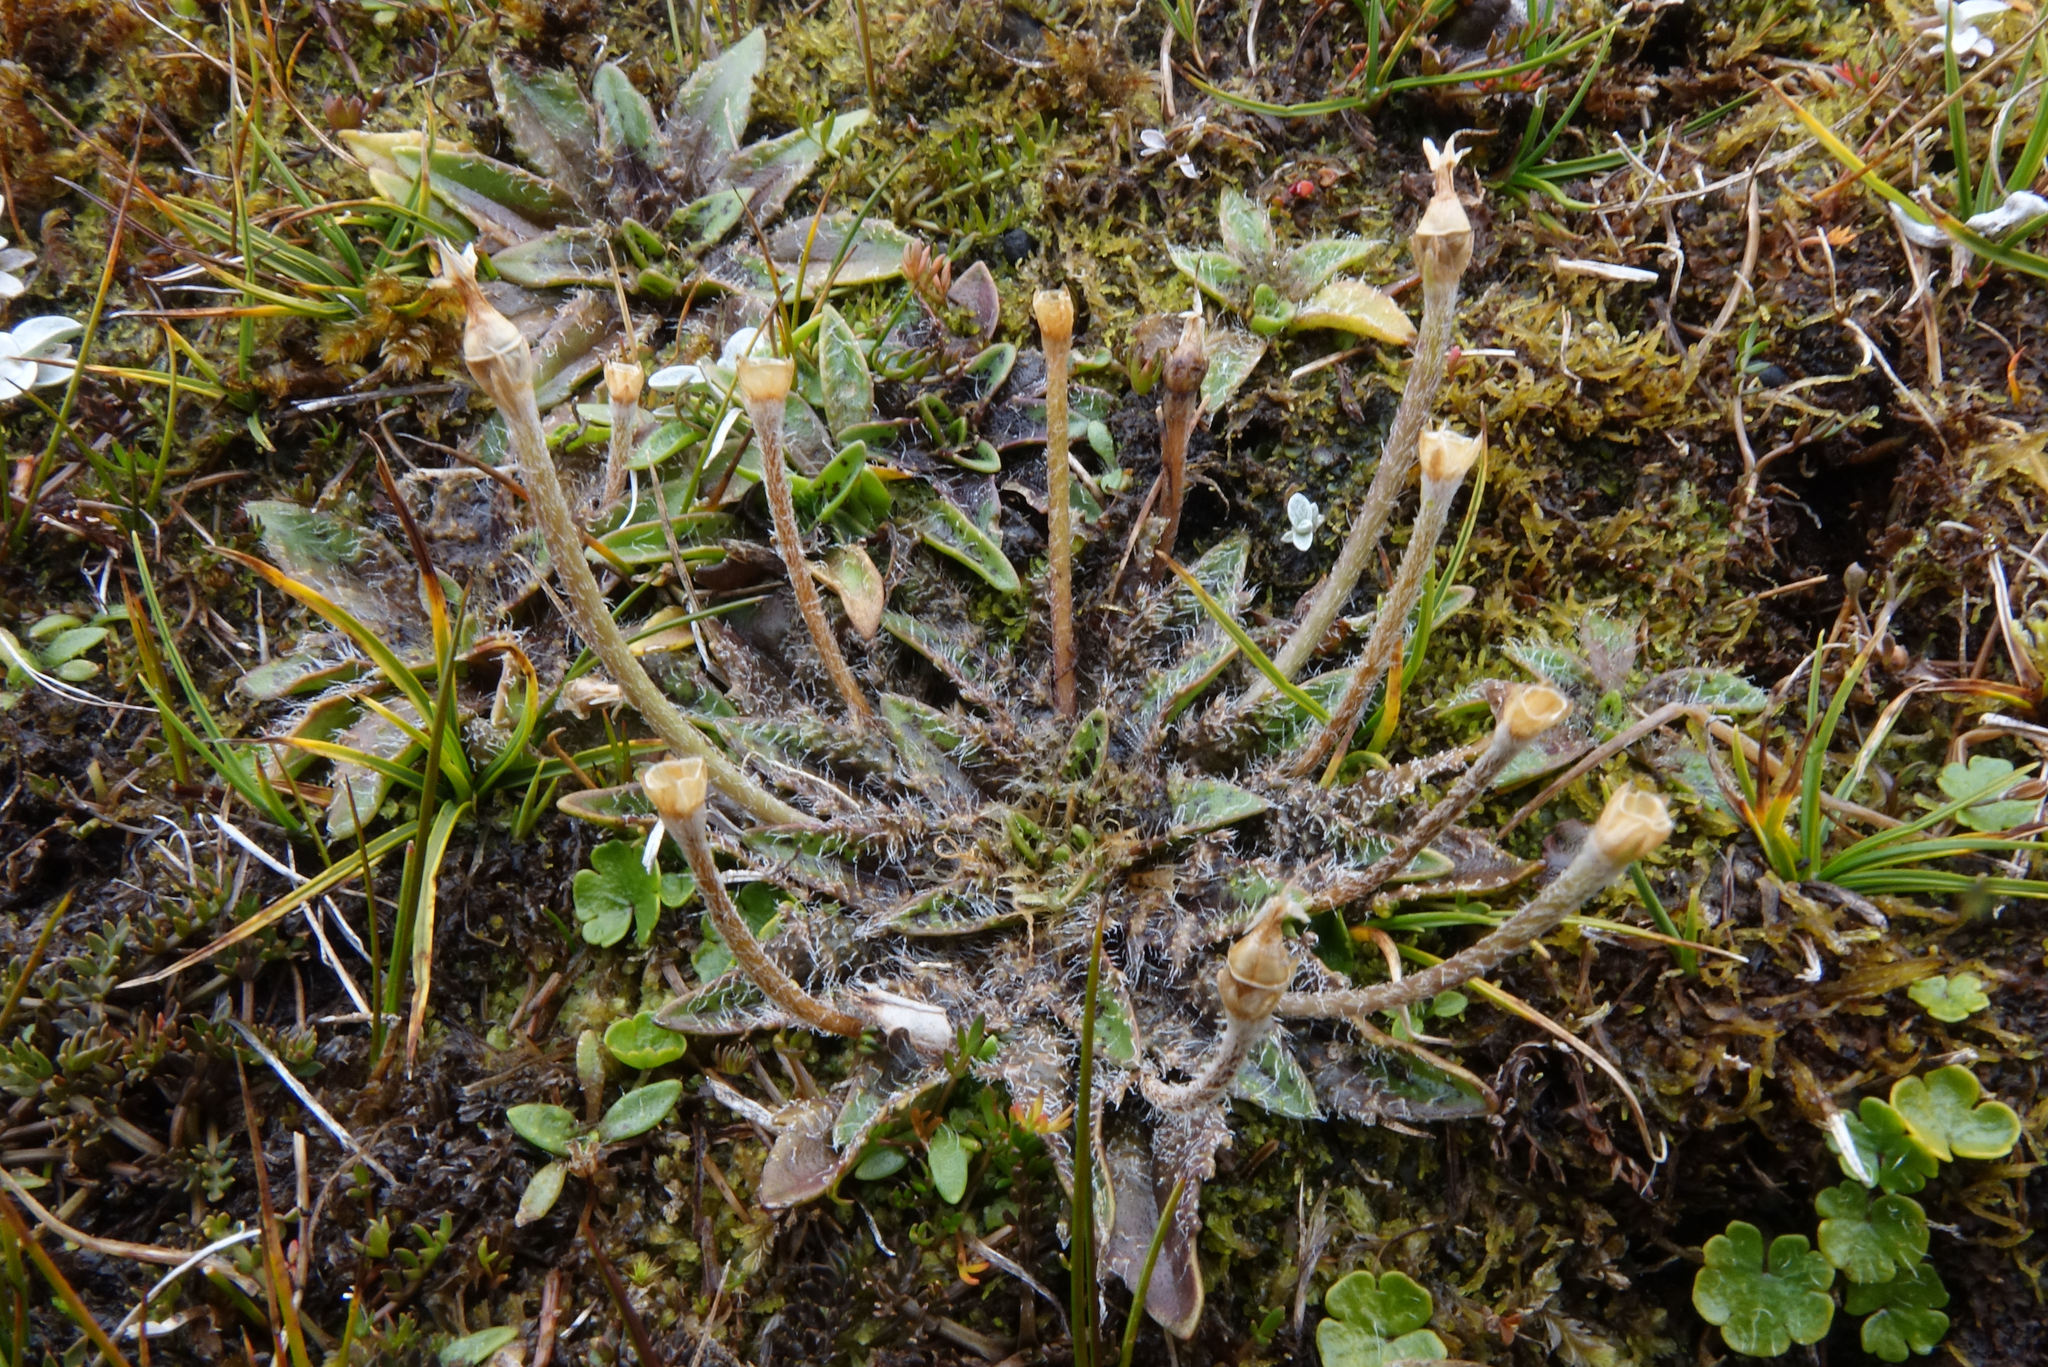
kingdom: Plantae
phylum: Tracheophyta
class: Magnoliopsida
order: Lamiales
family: Plantaginaceae
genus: Plantago
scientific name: Plantago unibracteata
